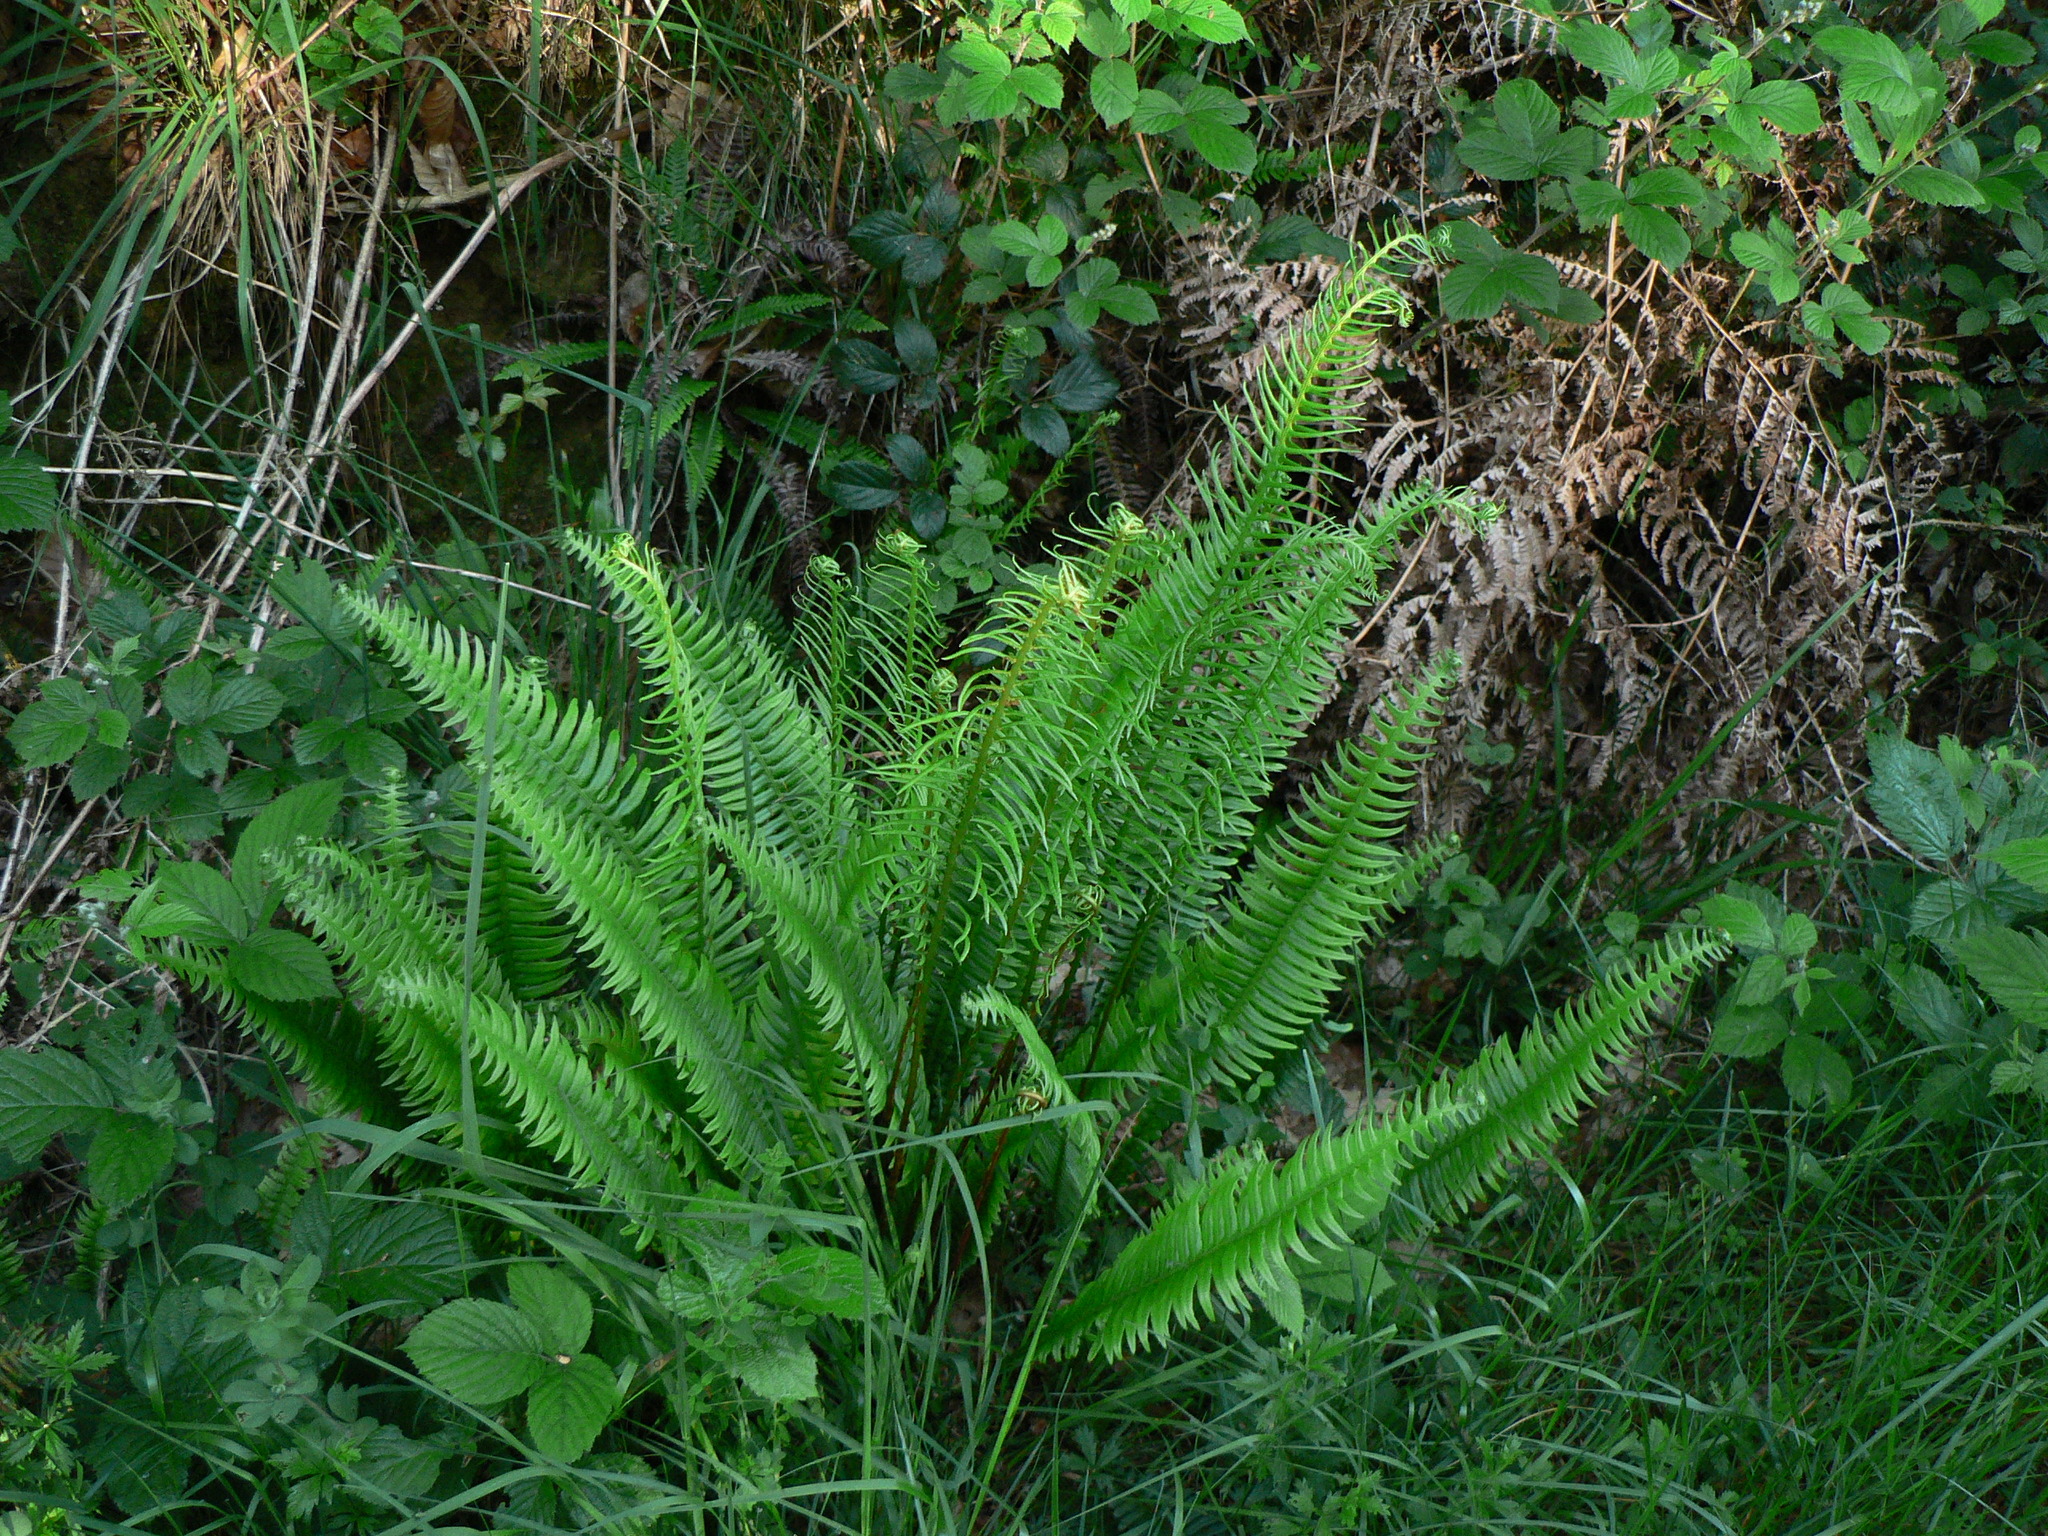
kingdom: Plantae
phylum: Tracheophyta
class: Polypodiopsida
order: Polypodiales
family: Blechnaceae
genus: Struthiopteris
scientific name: Struthiopteris spicant
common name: Deer fern
